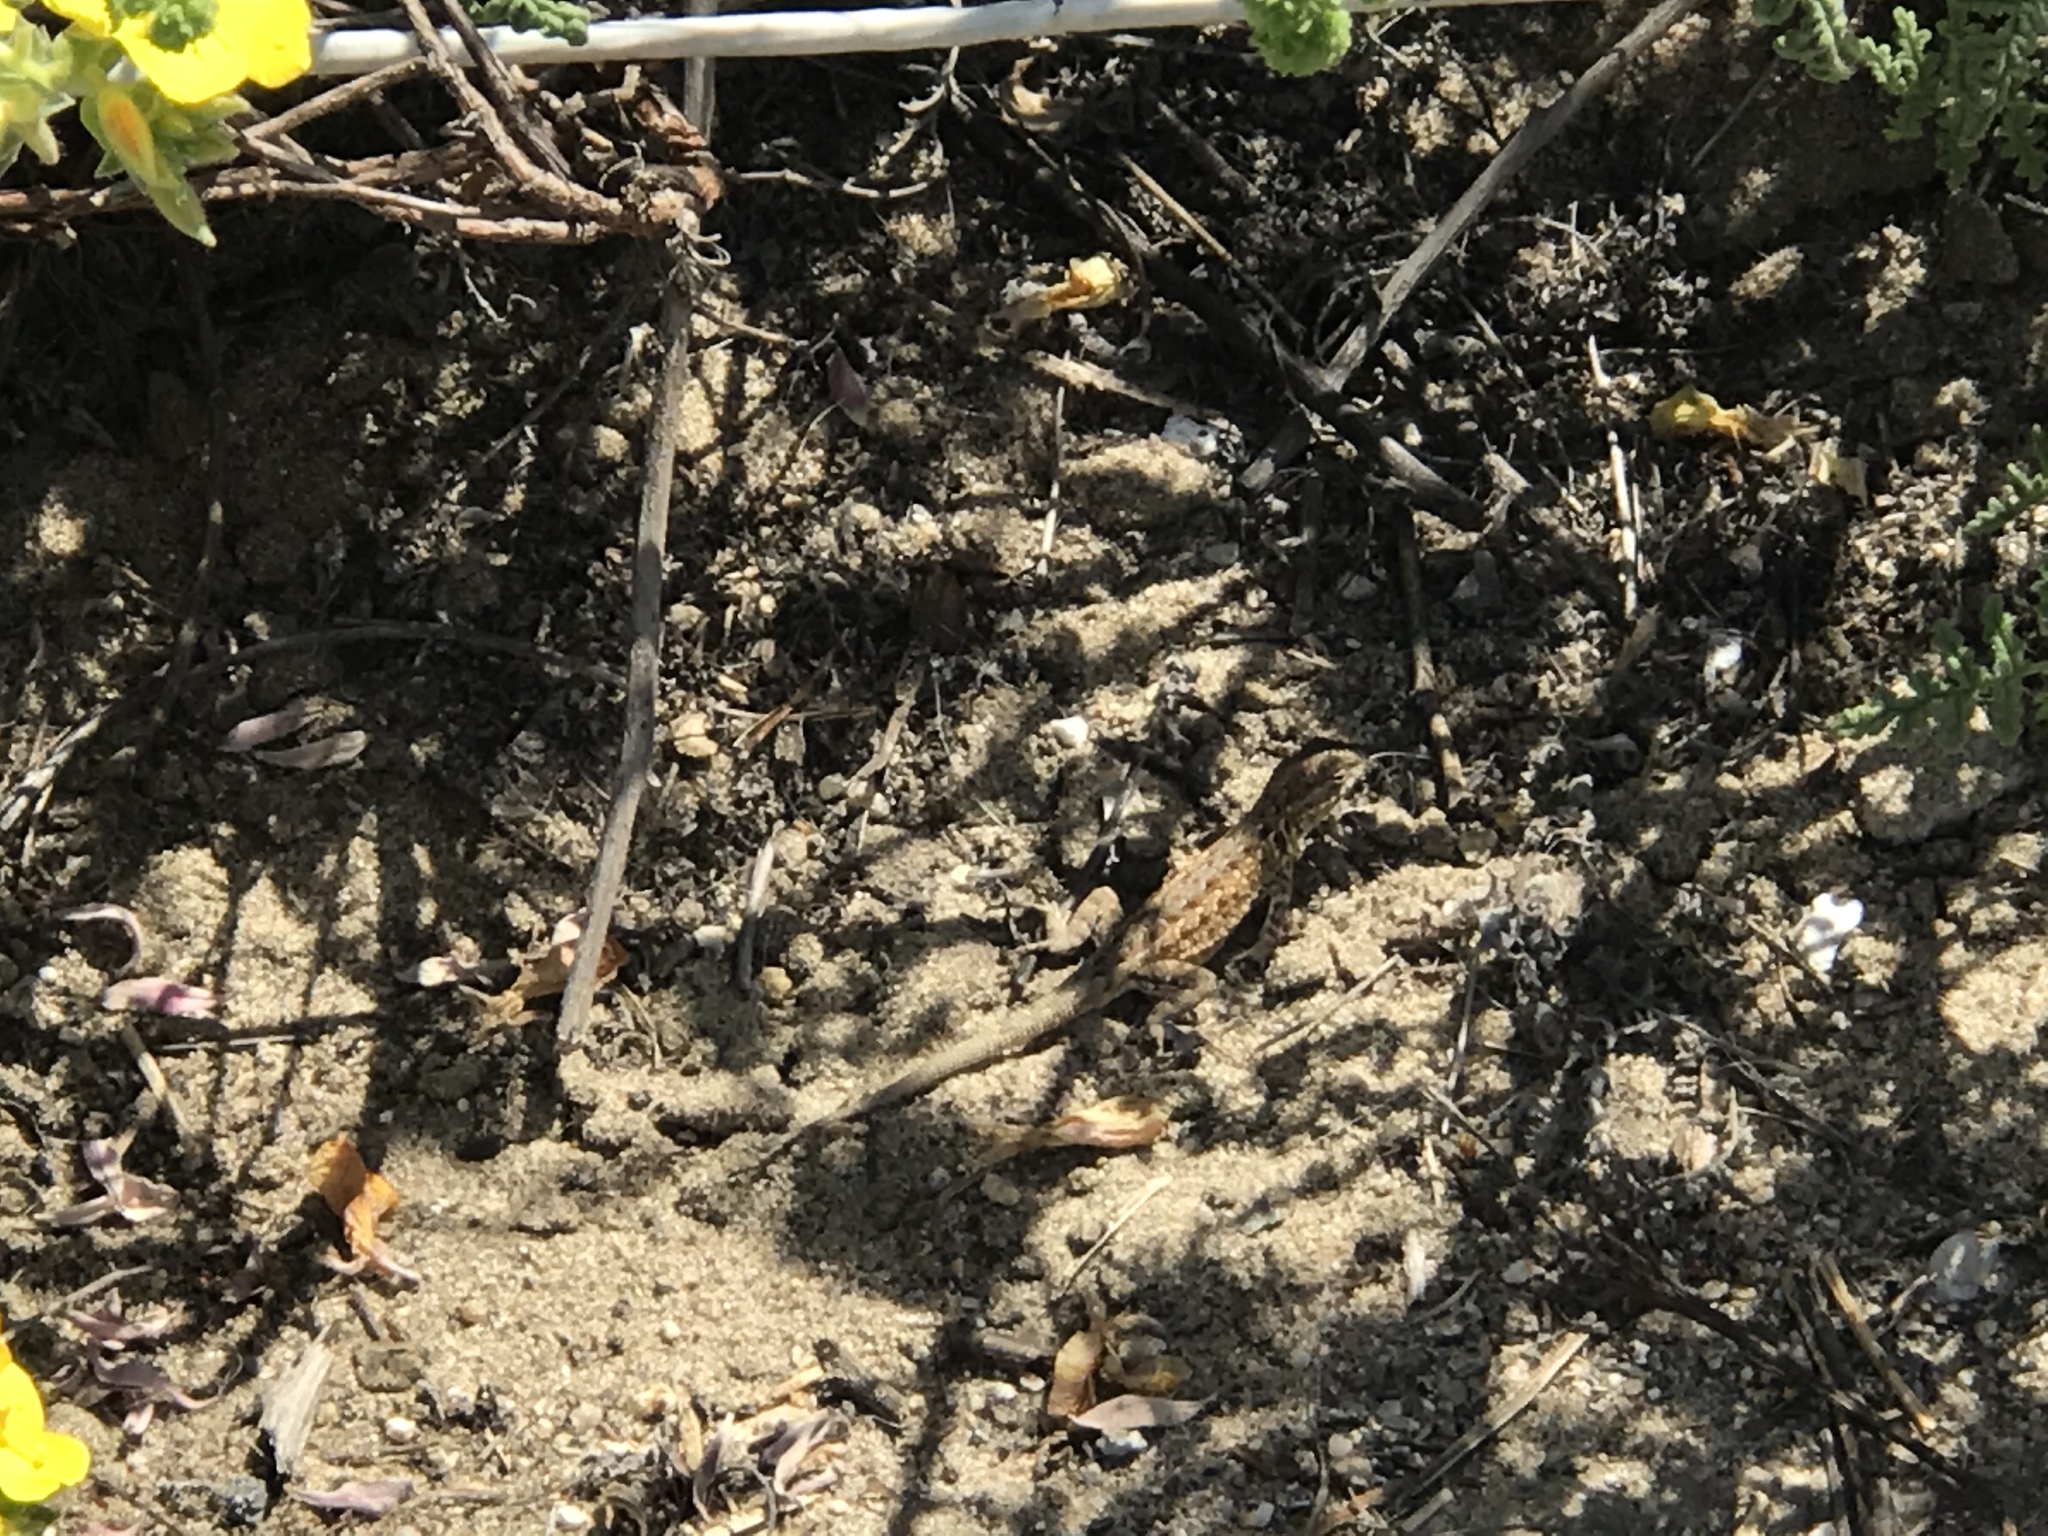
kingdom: Animalia
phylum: Chordata
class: Squamata
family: Phrynosomatidae
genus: Uta
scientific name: Uta stansburiana
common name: Side-blotched lizard
